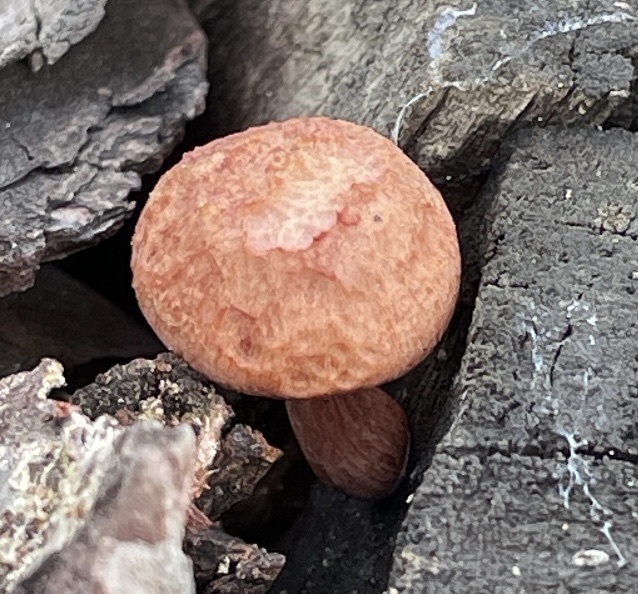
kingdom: Fungi
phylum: Basidiomycota
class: Agaricomycetes
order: Agaricales
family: Hymenogastraceae
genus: Gymnopilus
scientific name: Gymnopilus luteofolius
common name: Yellow-gilled gymnopilus
